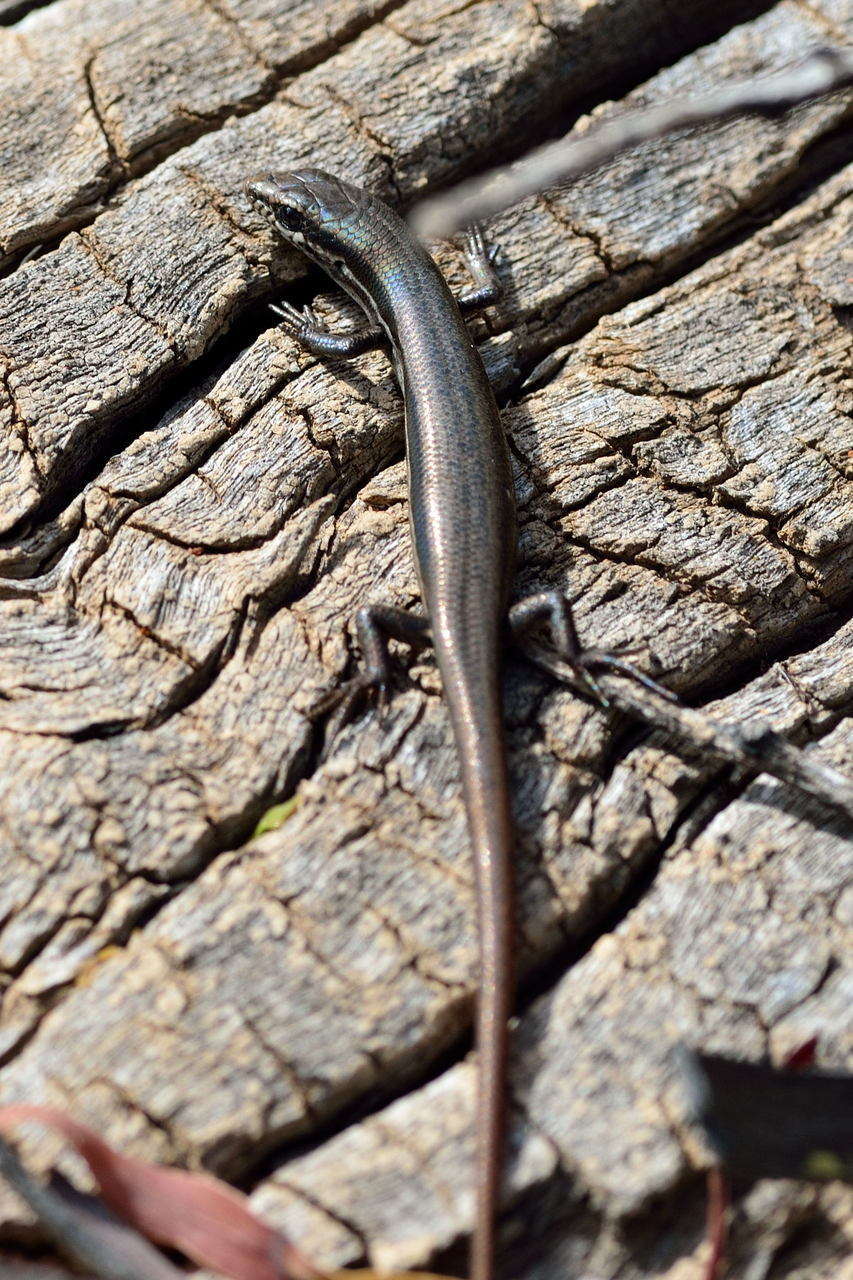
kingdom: Animalia
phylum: Chordata
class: Squamata
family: Scincidae
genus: Morethia
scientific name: Morethia boulengeri
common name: South-eastern morethia skink
